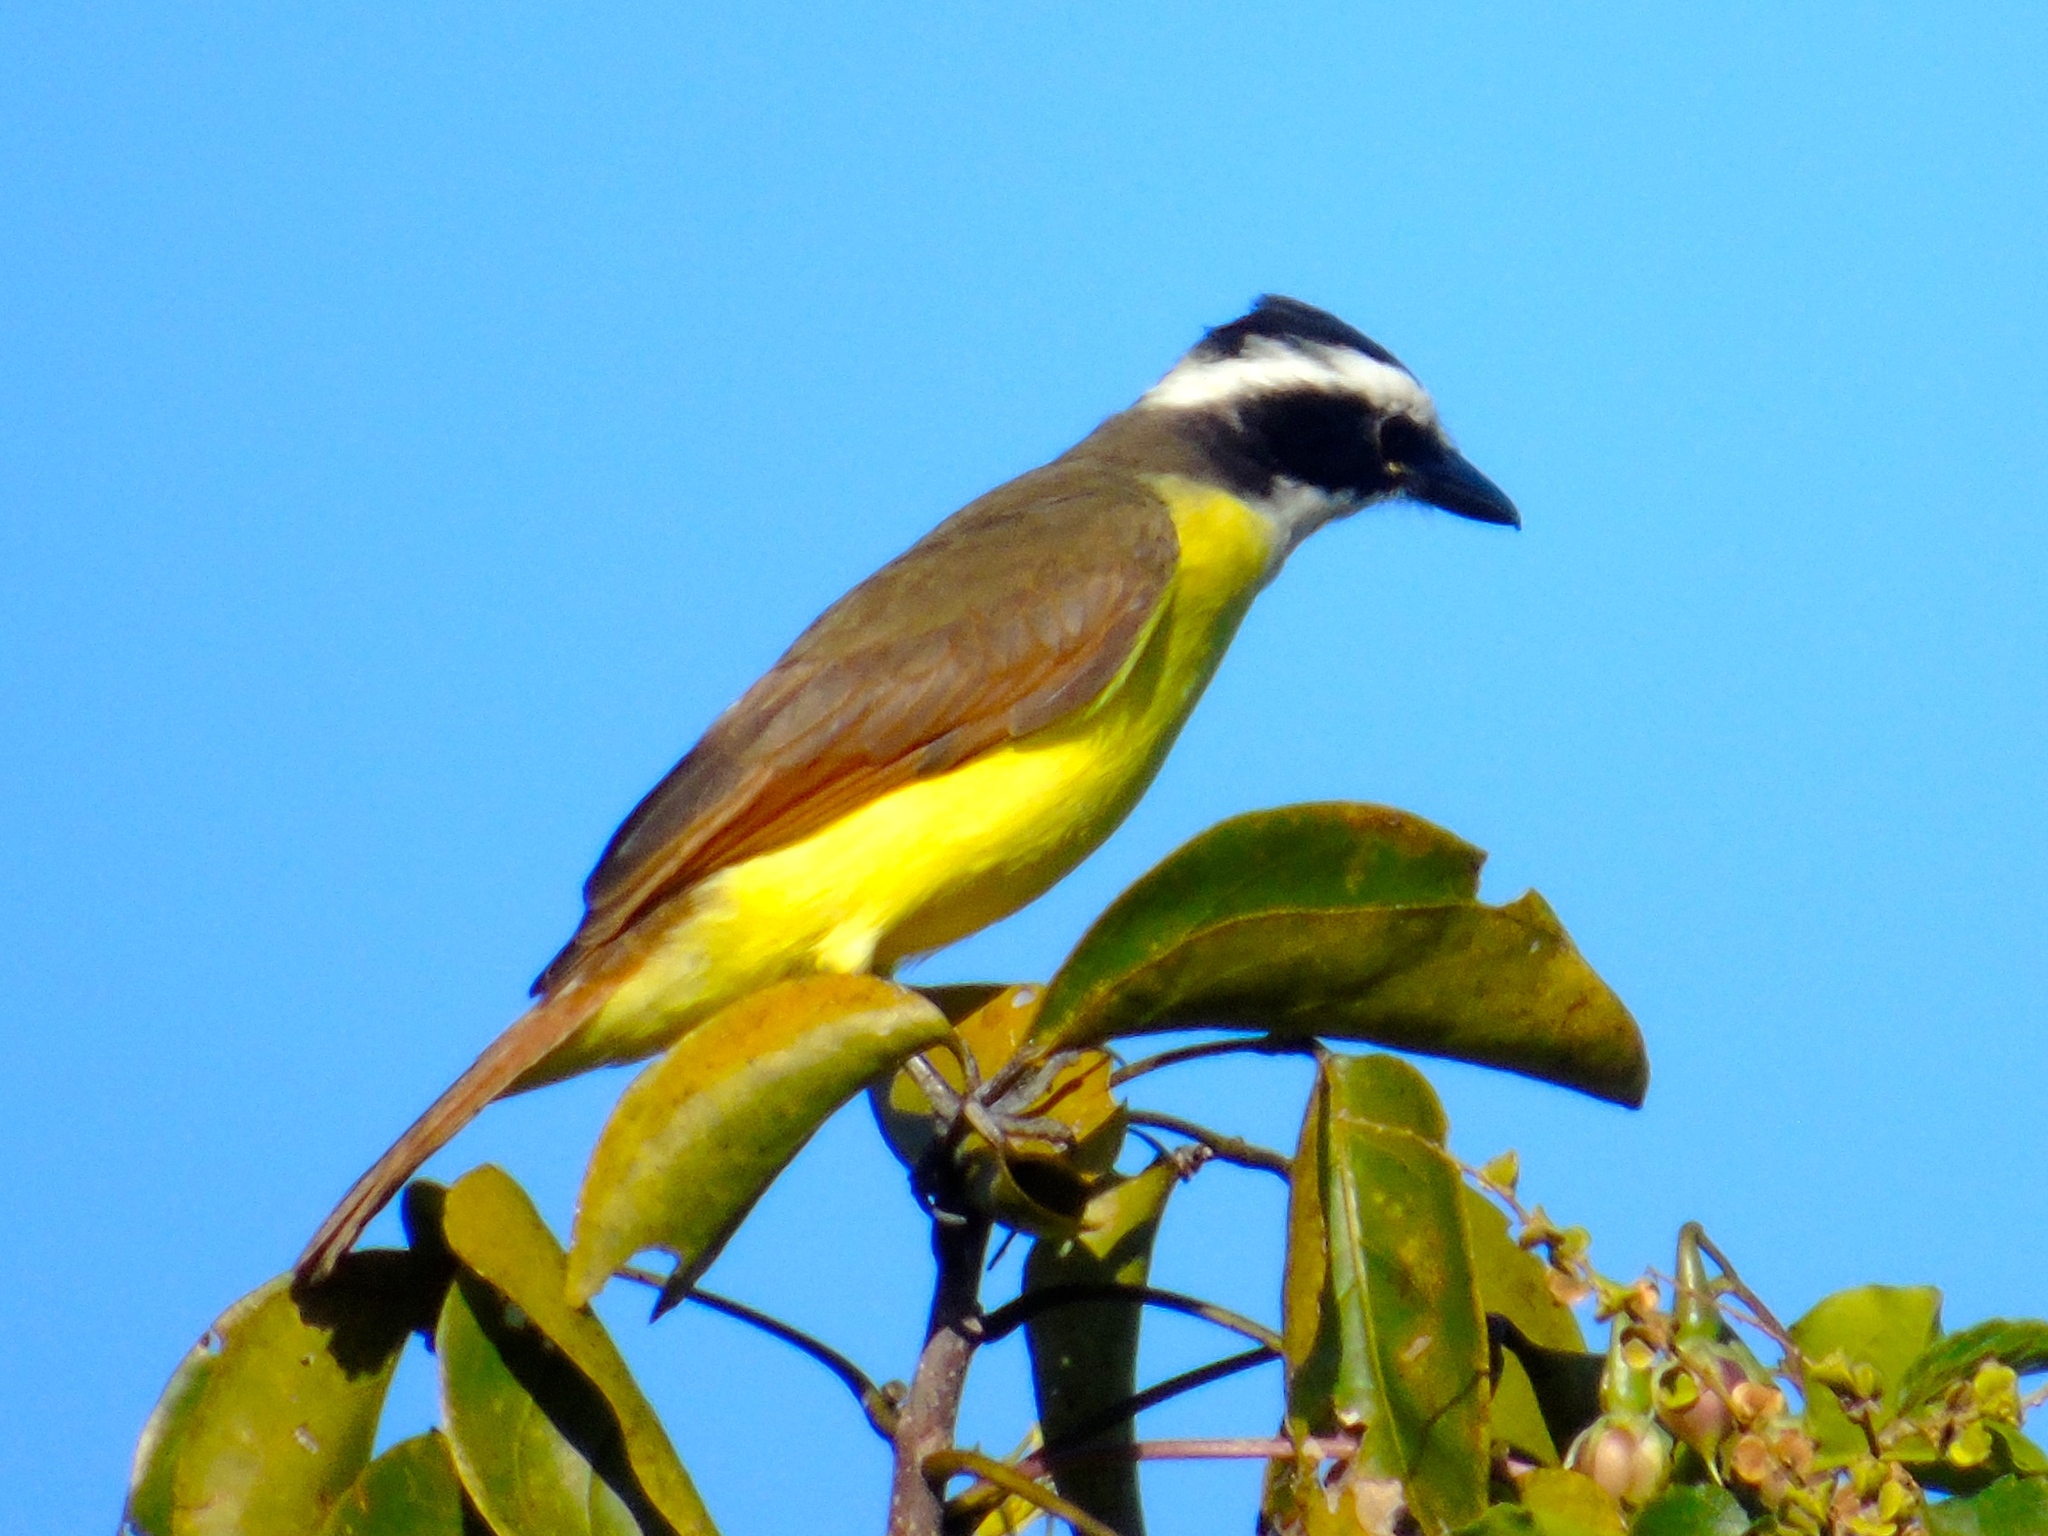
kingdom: Animalia
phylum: Chordata
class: Aves
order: Passeriformes
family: Tyrannidae
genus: Pitangus
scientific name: Pitangus sulphuratus
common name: Great kiskadee
